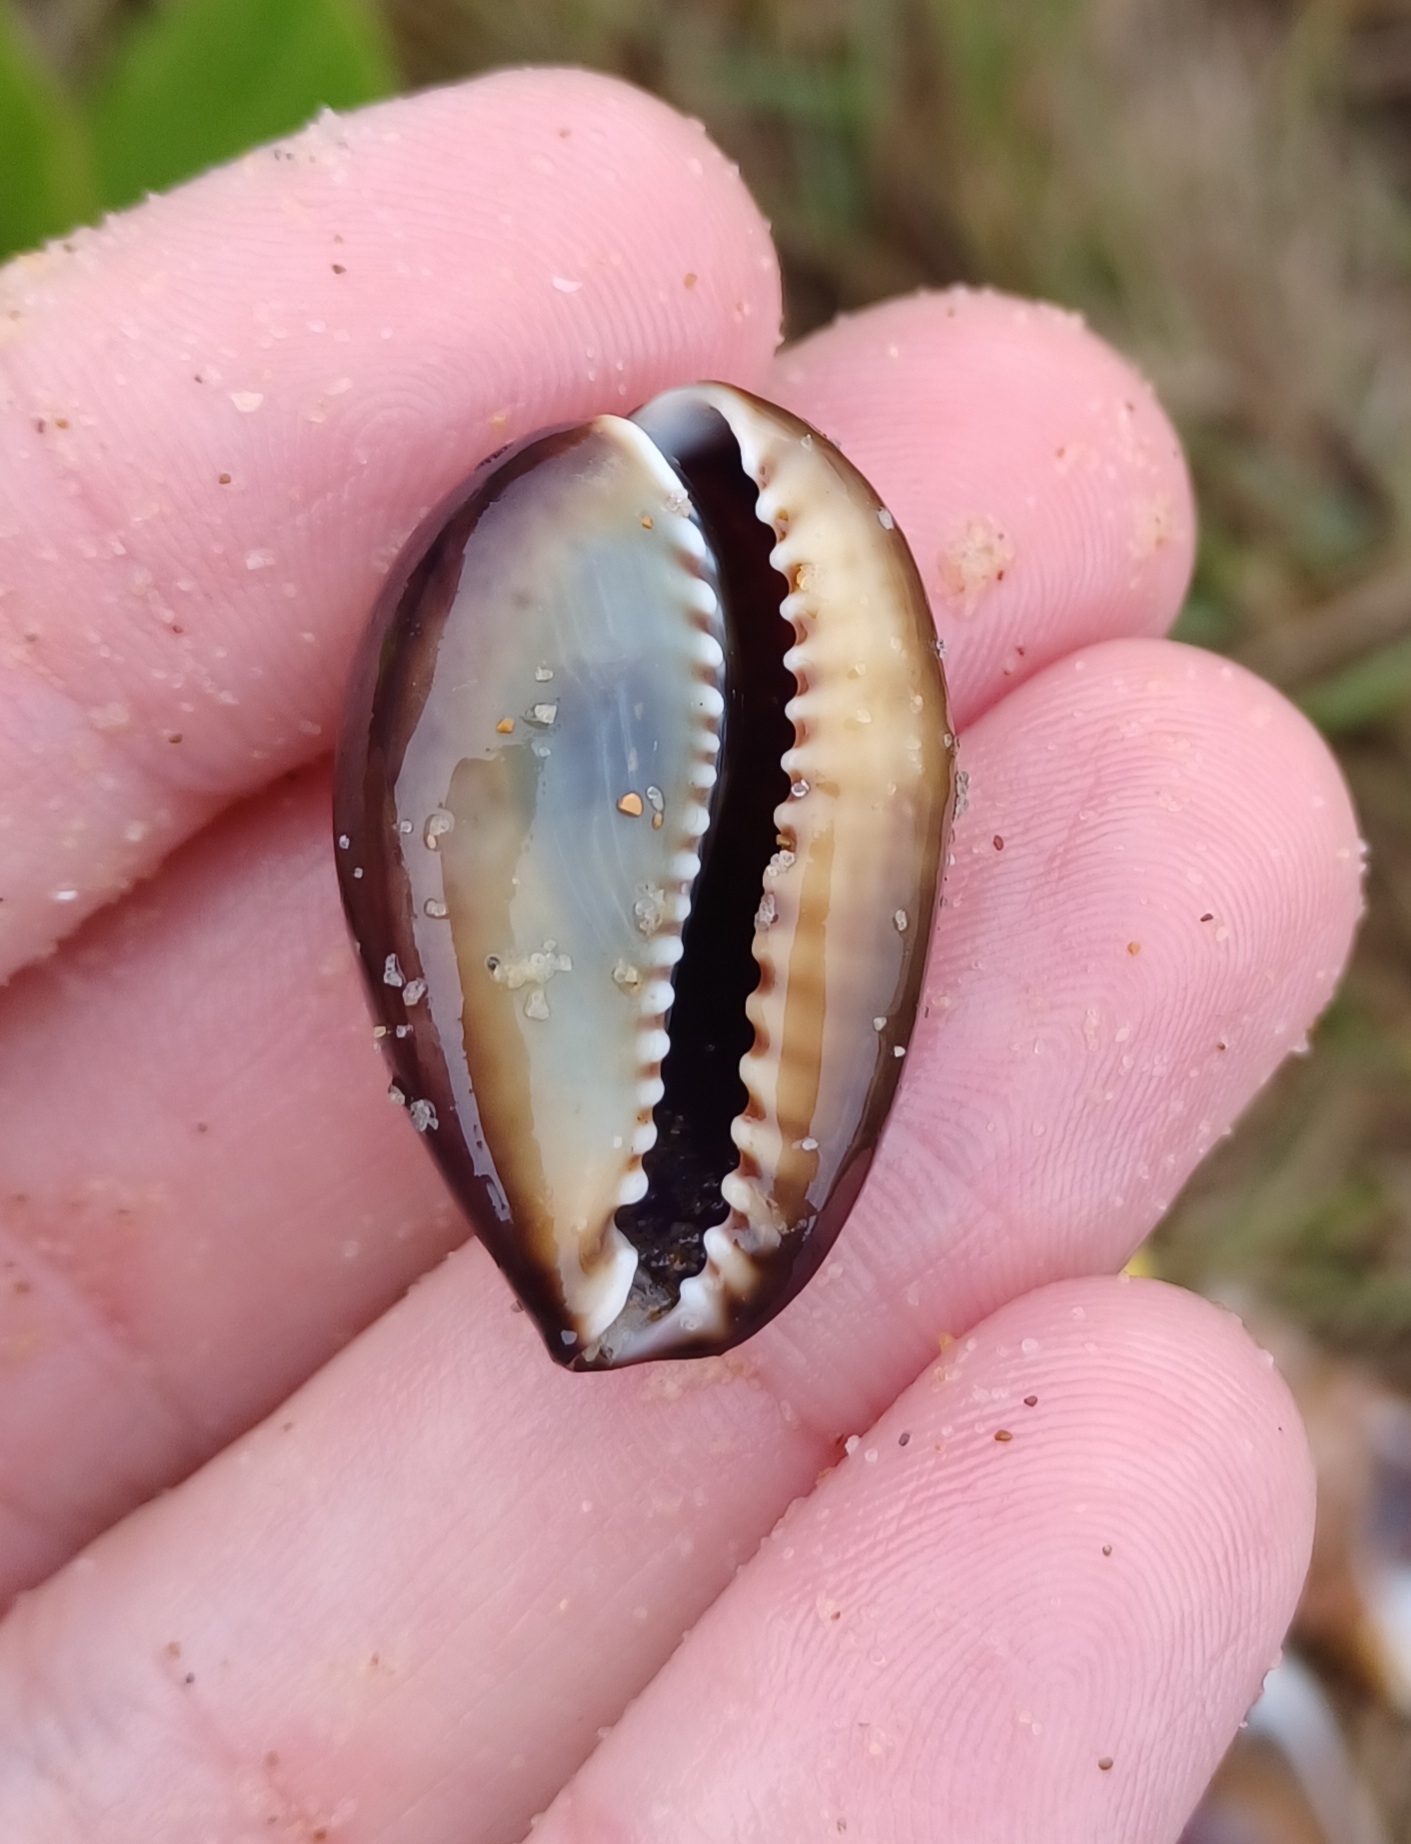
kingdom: Animalia
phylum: Mollusca
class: Gastropoda
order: Littorinimorpha
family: Cypraeidae
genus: Monetaria
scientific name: Monetaria caputserpentis
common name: Serpent's head cowrie
